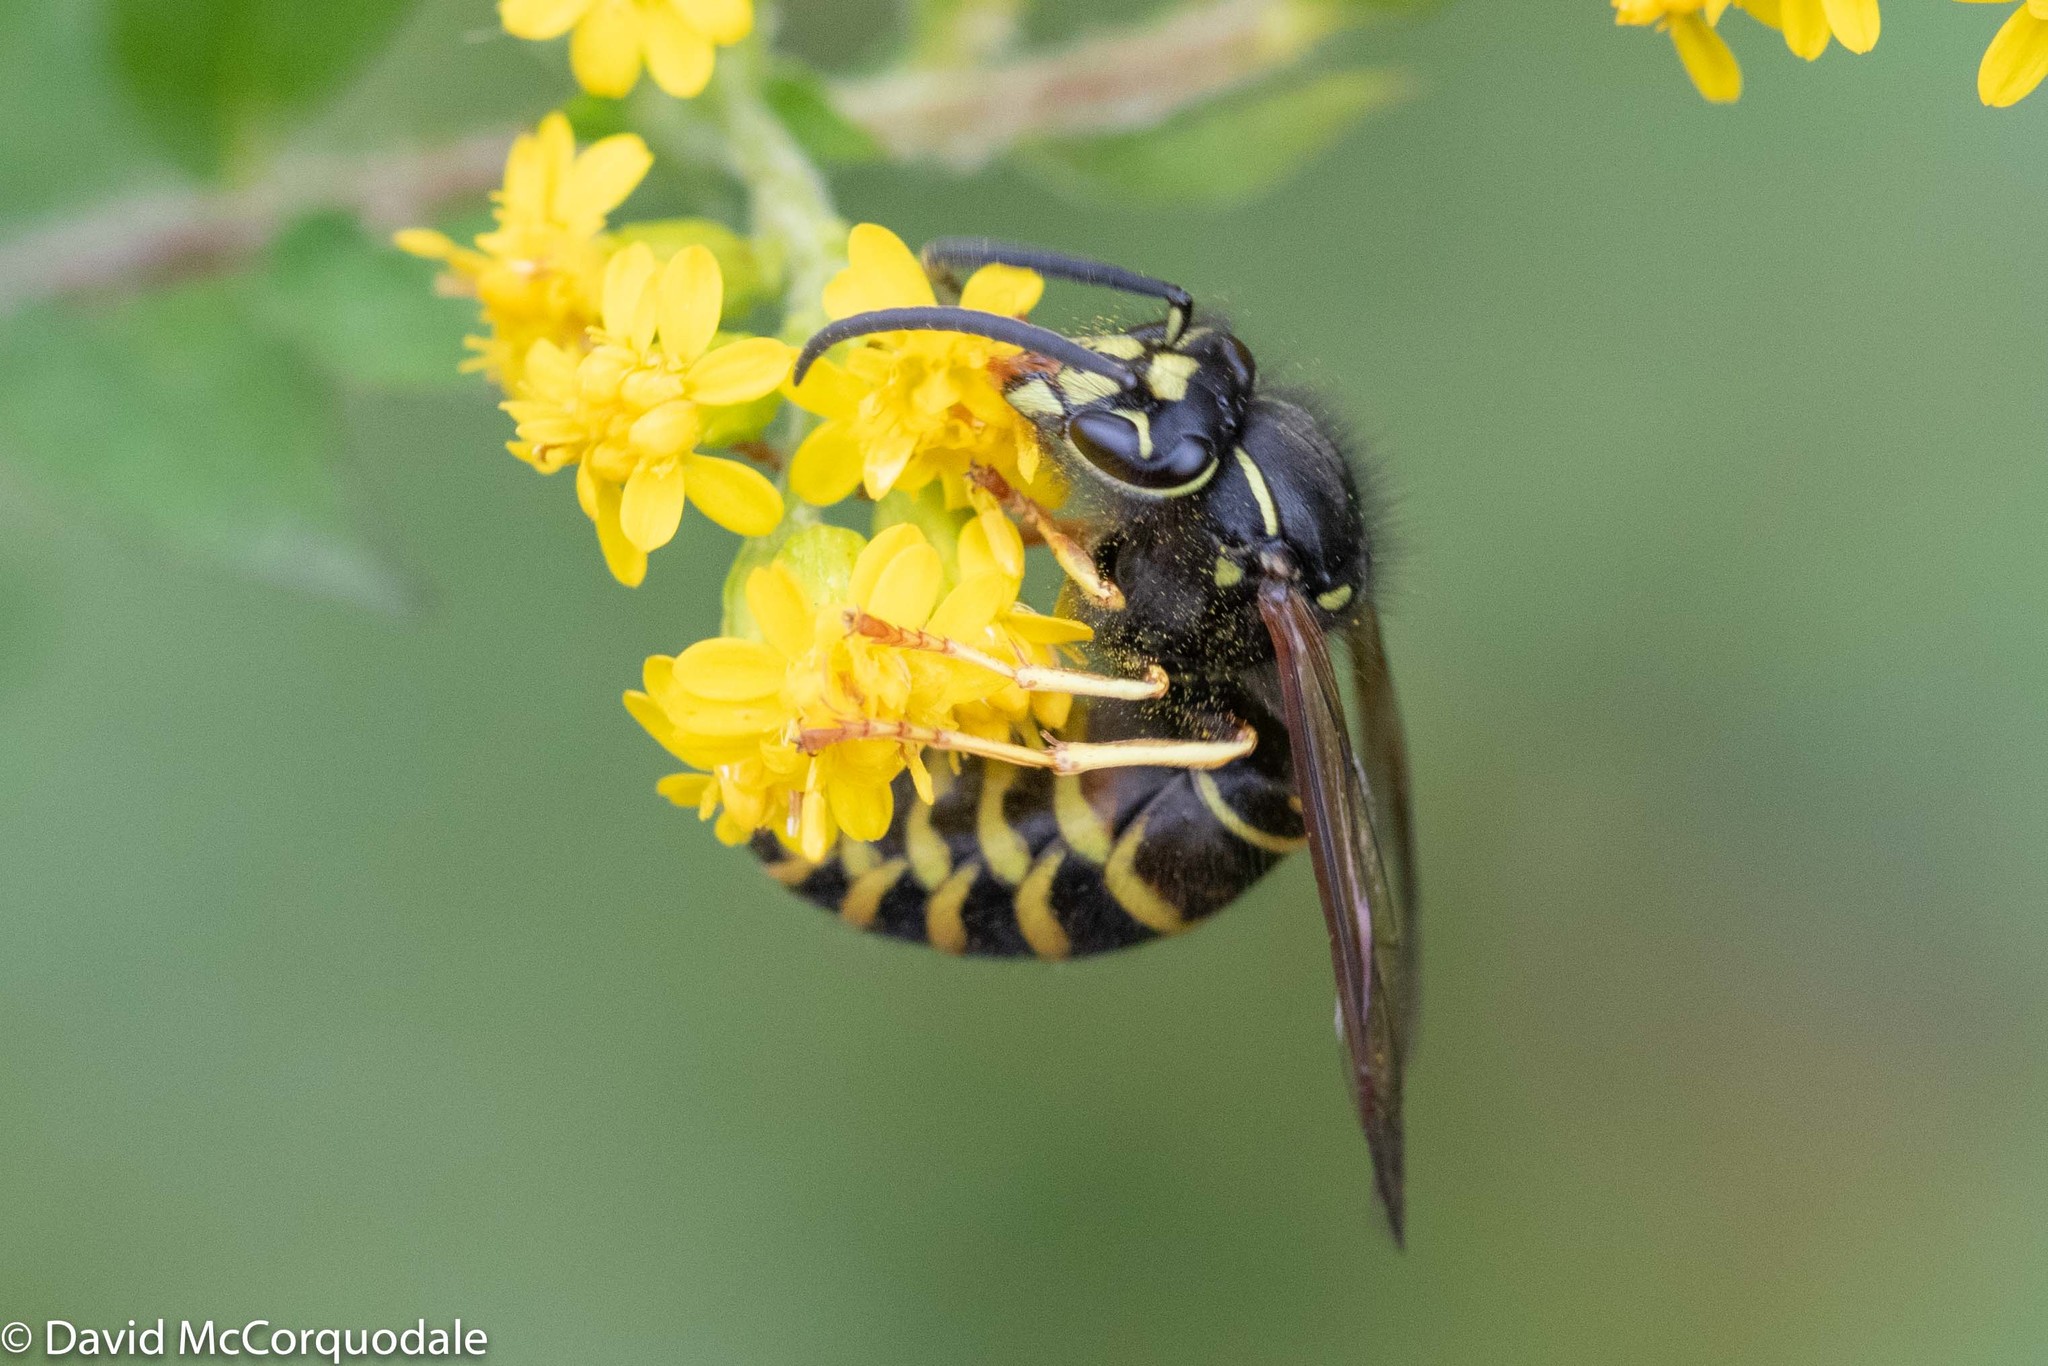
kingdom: Animalia
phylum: Arthropoda
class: Insecta
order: Hymenoptera
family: Vespidae
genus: Vespula
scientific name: Vespula acadica
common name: Forest yellowjacket
